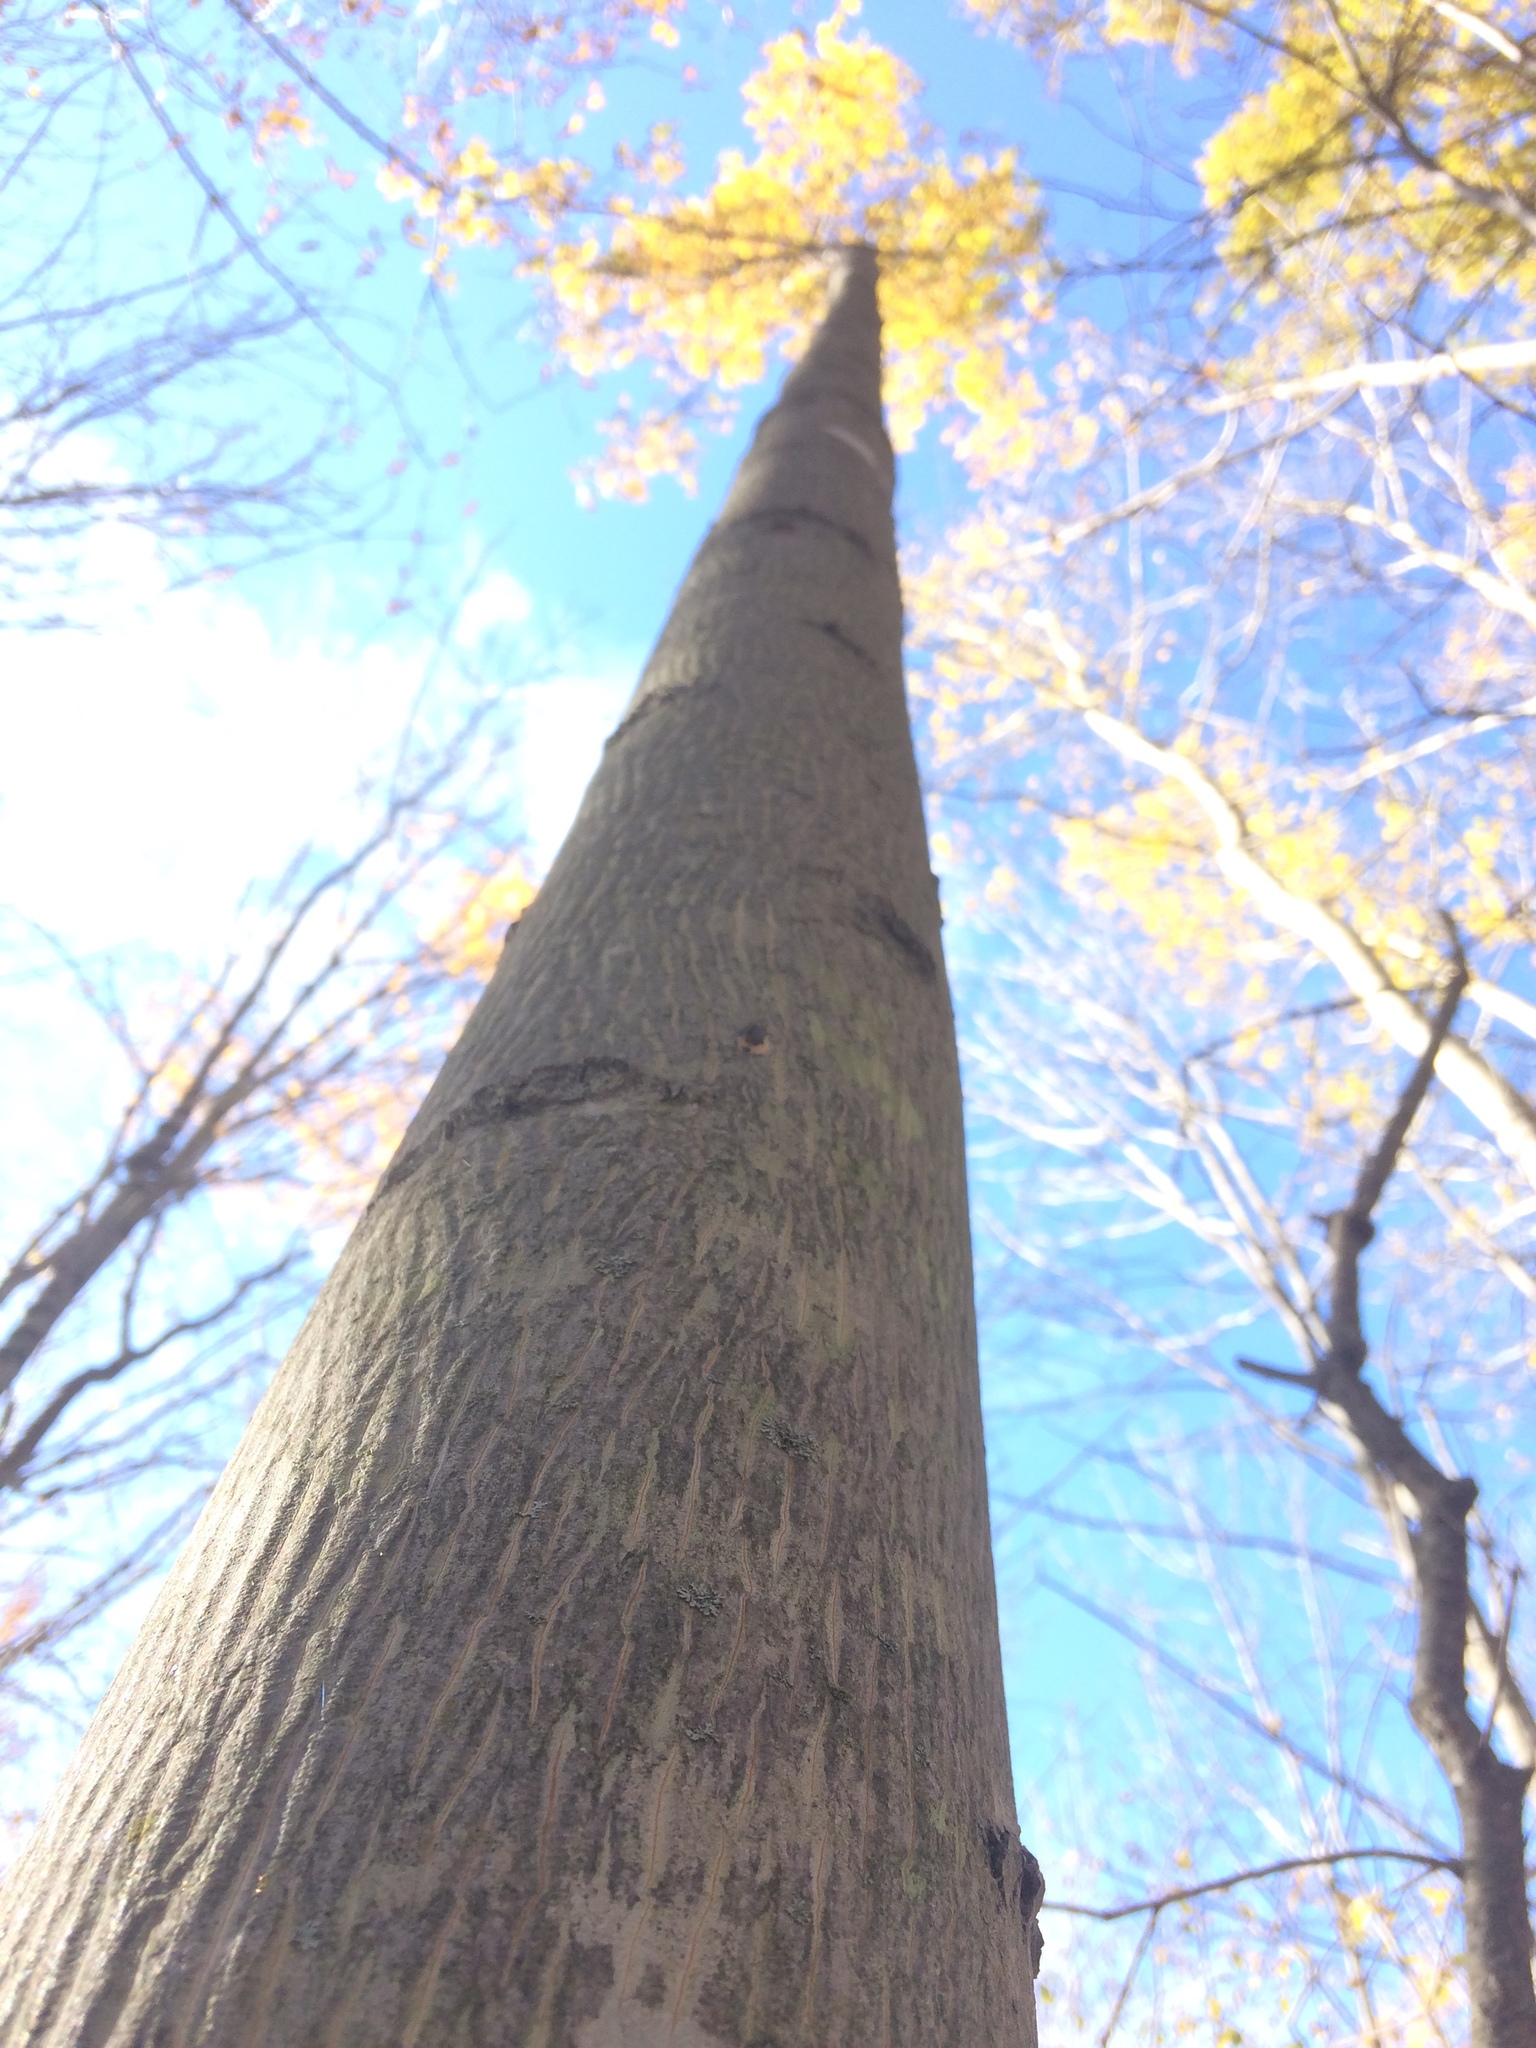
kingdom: Plantae
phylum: Tracheophyta
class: Magnoliopsida
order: Fagales
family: Juglandaceae
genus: Carya
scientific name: Carya cordiformis
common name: Bitternut hickory
